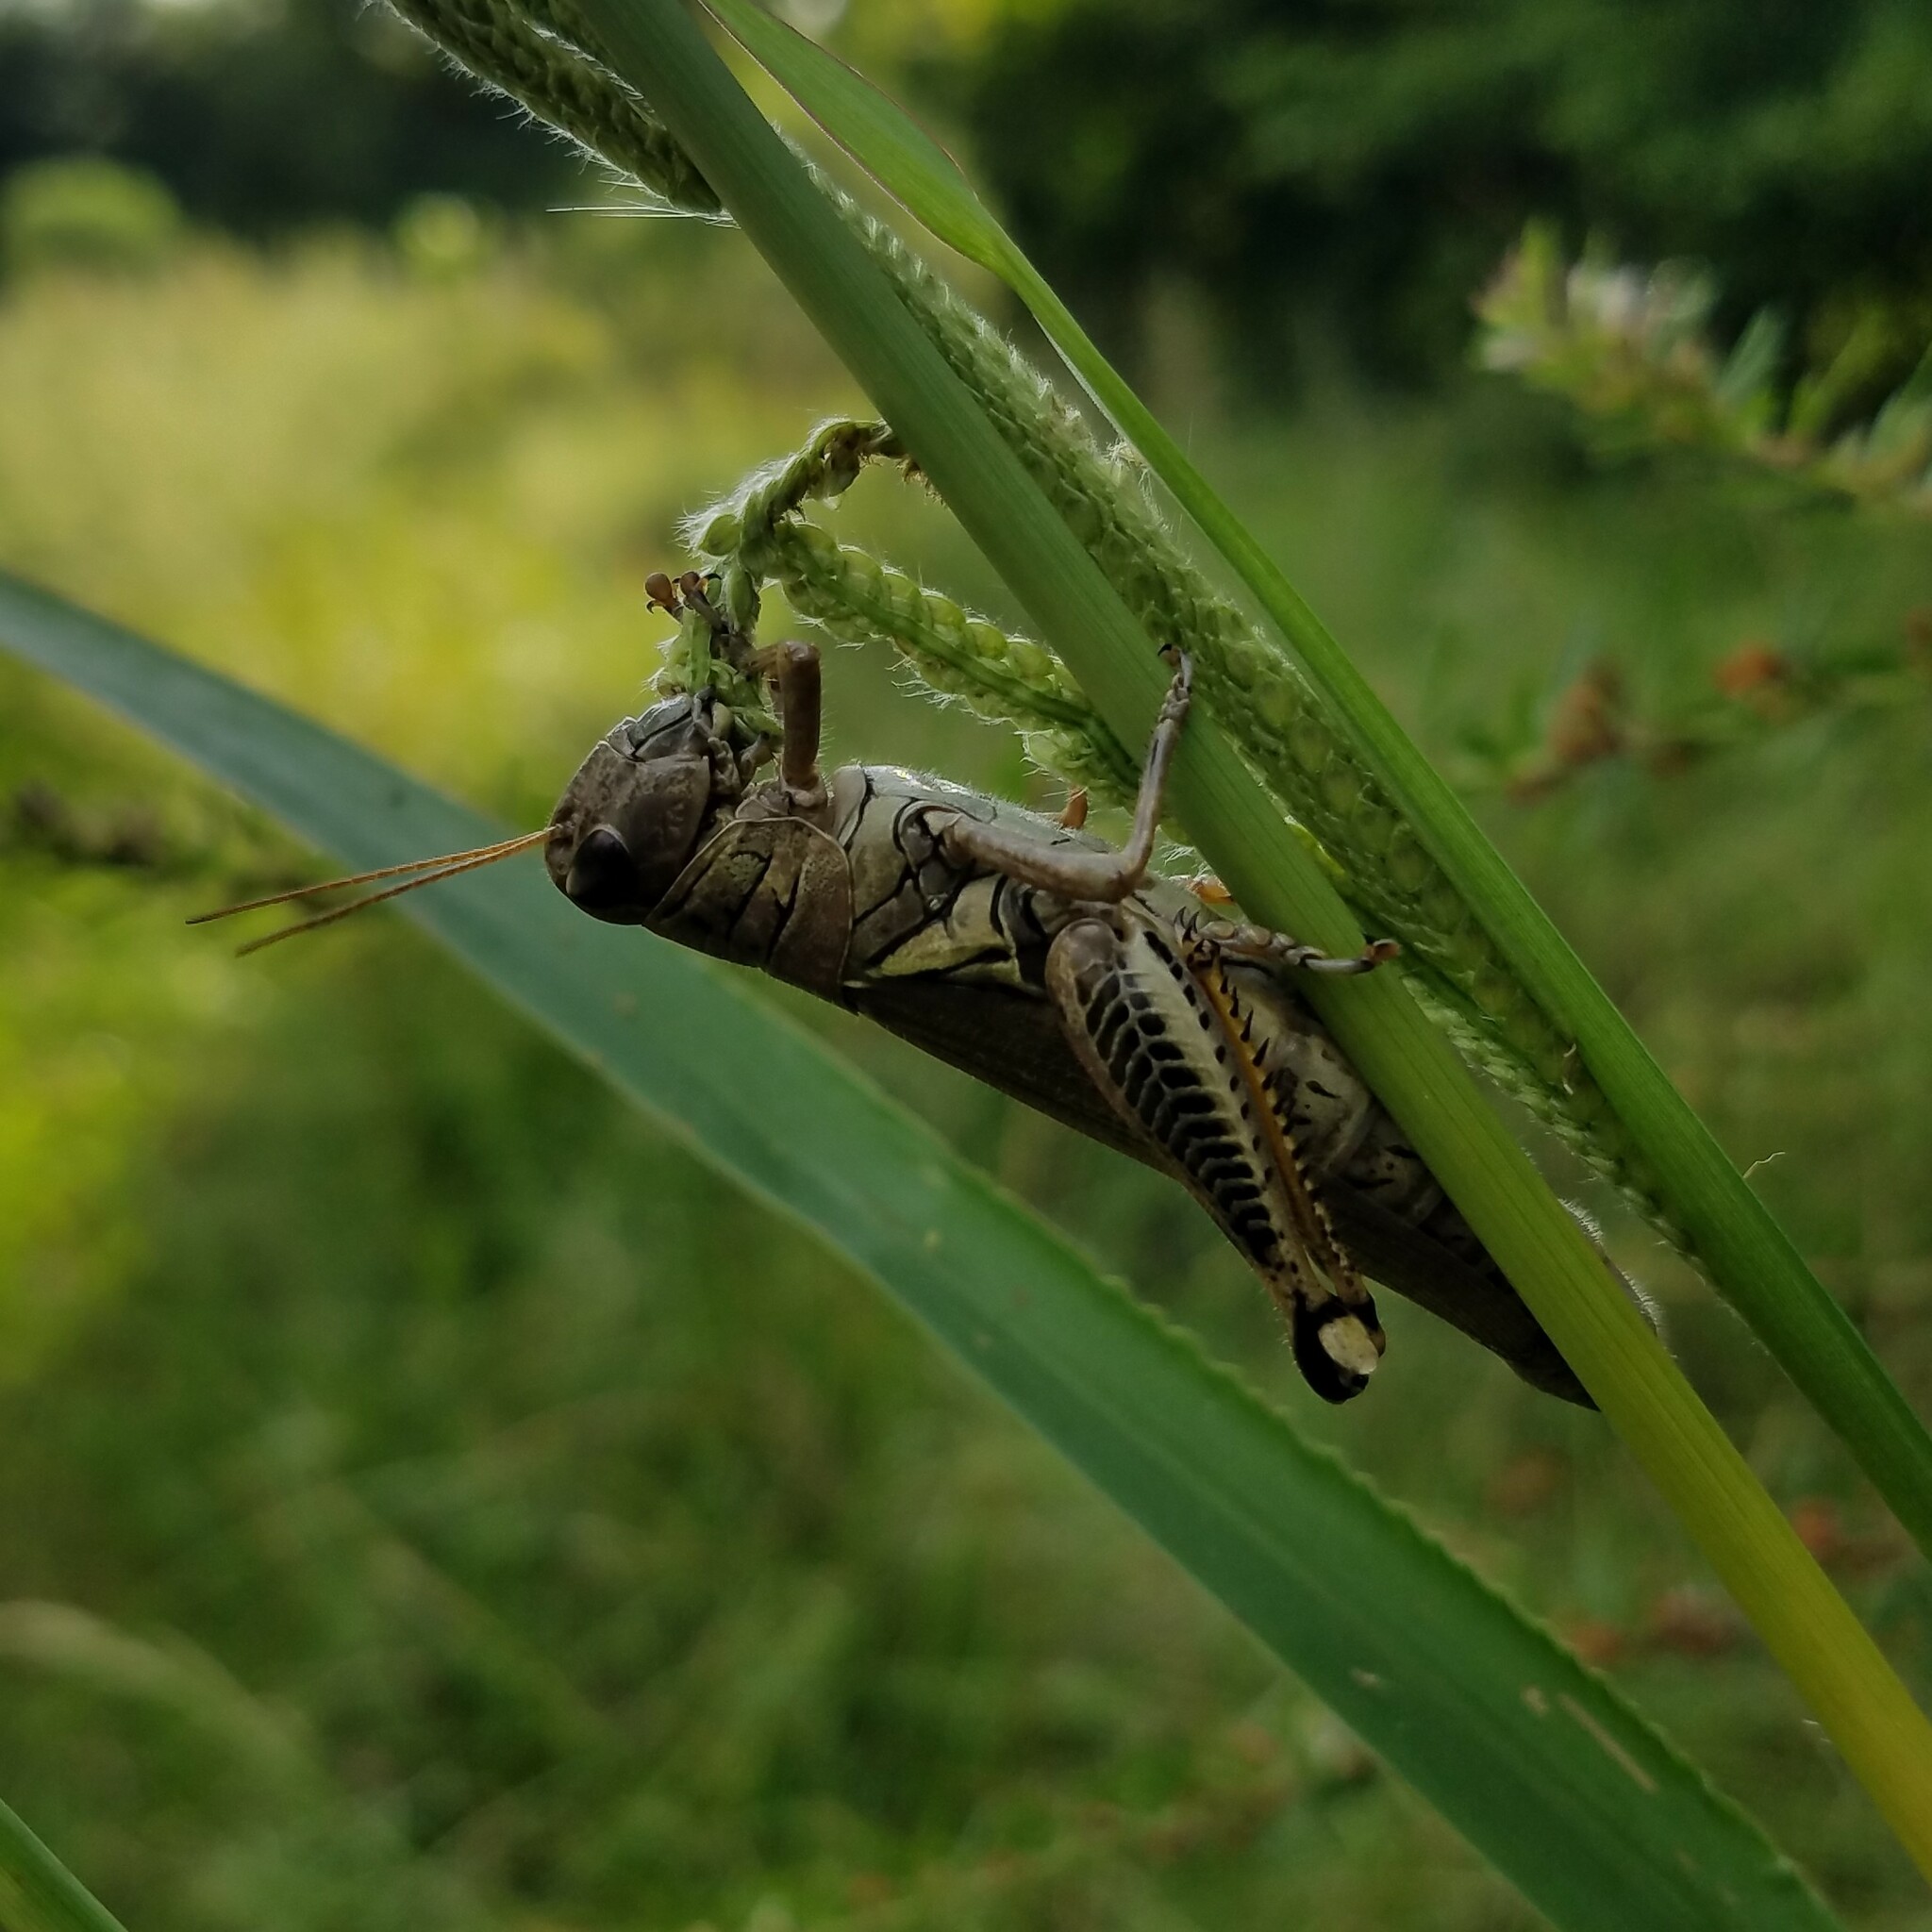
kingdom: Animalia
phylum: Arthropoda
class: Insecta
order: Orthoptera
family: Acrididae
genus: Melanoplus
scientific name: Melanoplus differentialis
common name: Differential grasshopper
